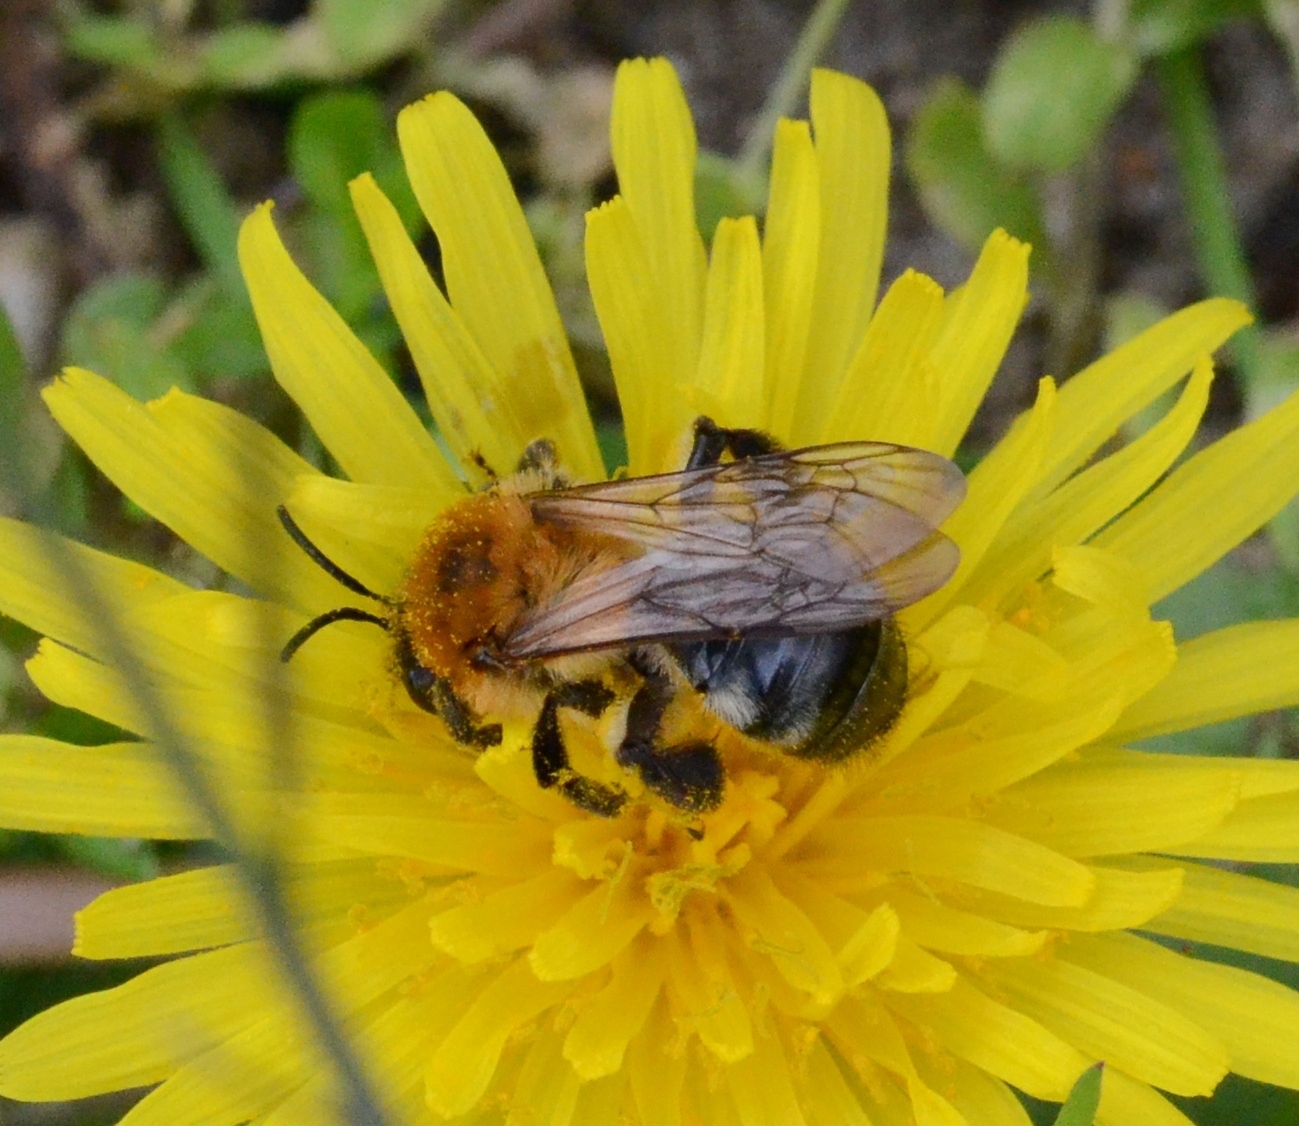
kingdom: Animalia
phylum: Arthropoda
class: Insecta
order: Hymenoptera
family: Andrenidae
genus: Andrena
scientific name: Andrena nitida
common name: Grey-patched mining bee
